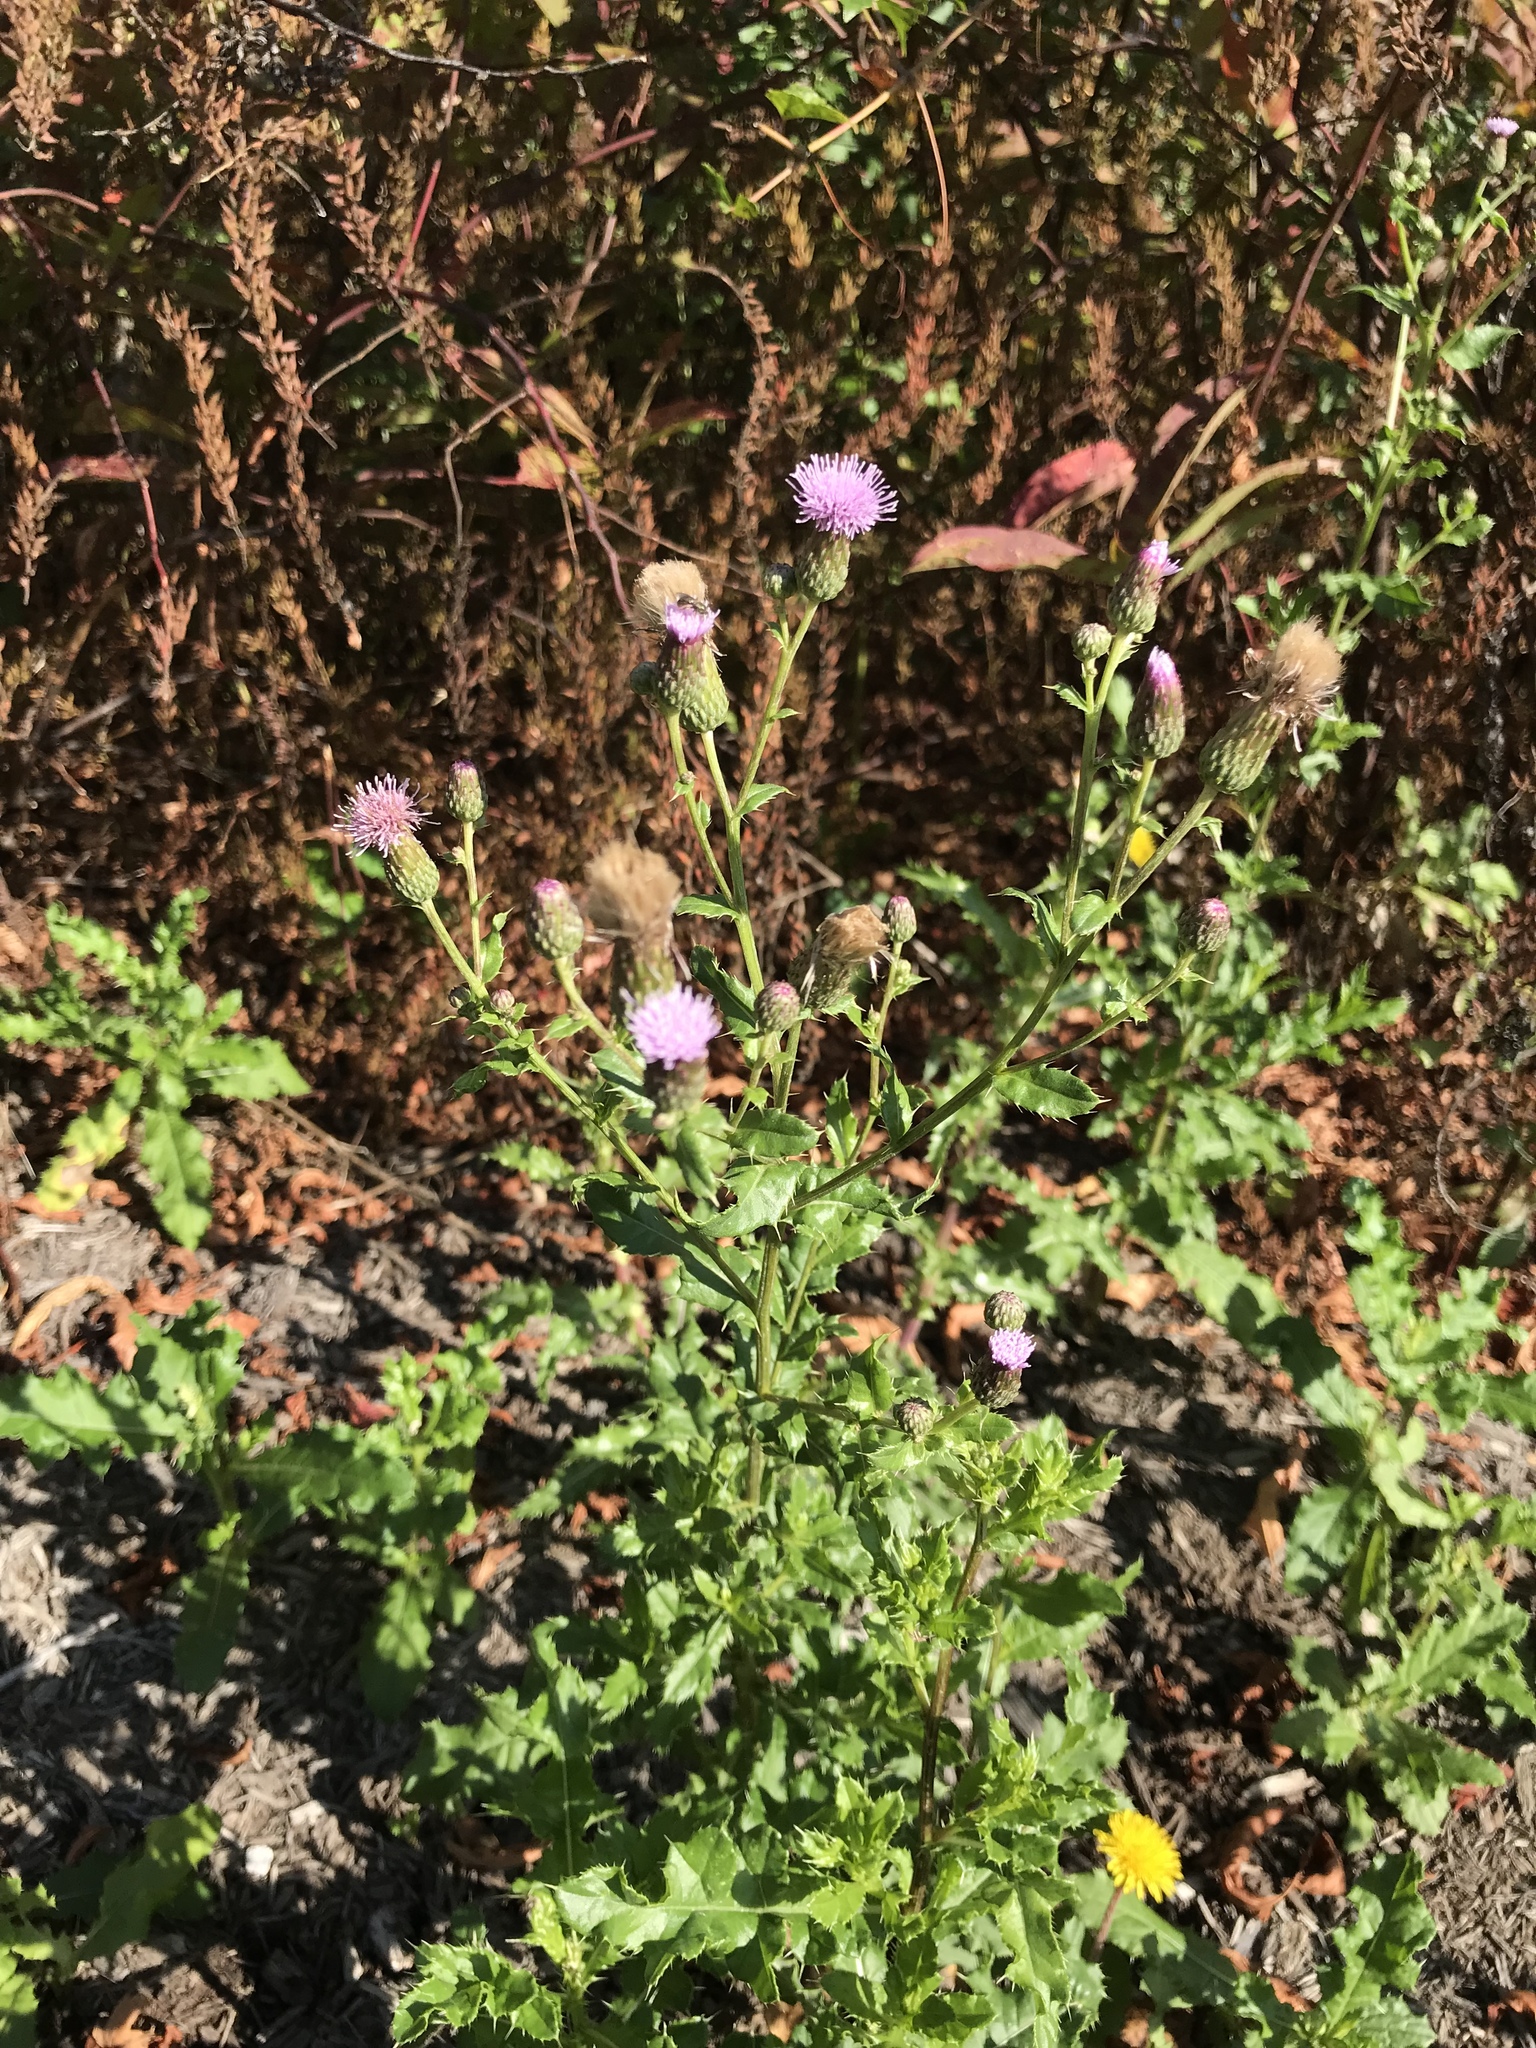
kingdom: Plantae
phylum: Tracheophyta
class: Magnoliopsida
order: Asterales
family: Asteraceae
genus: Cirsium
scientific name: Cirsium arvense
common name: Creeping thistle
